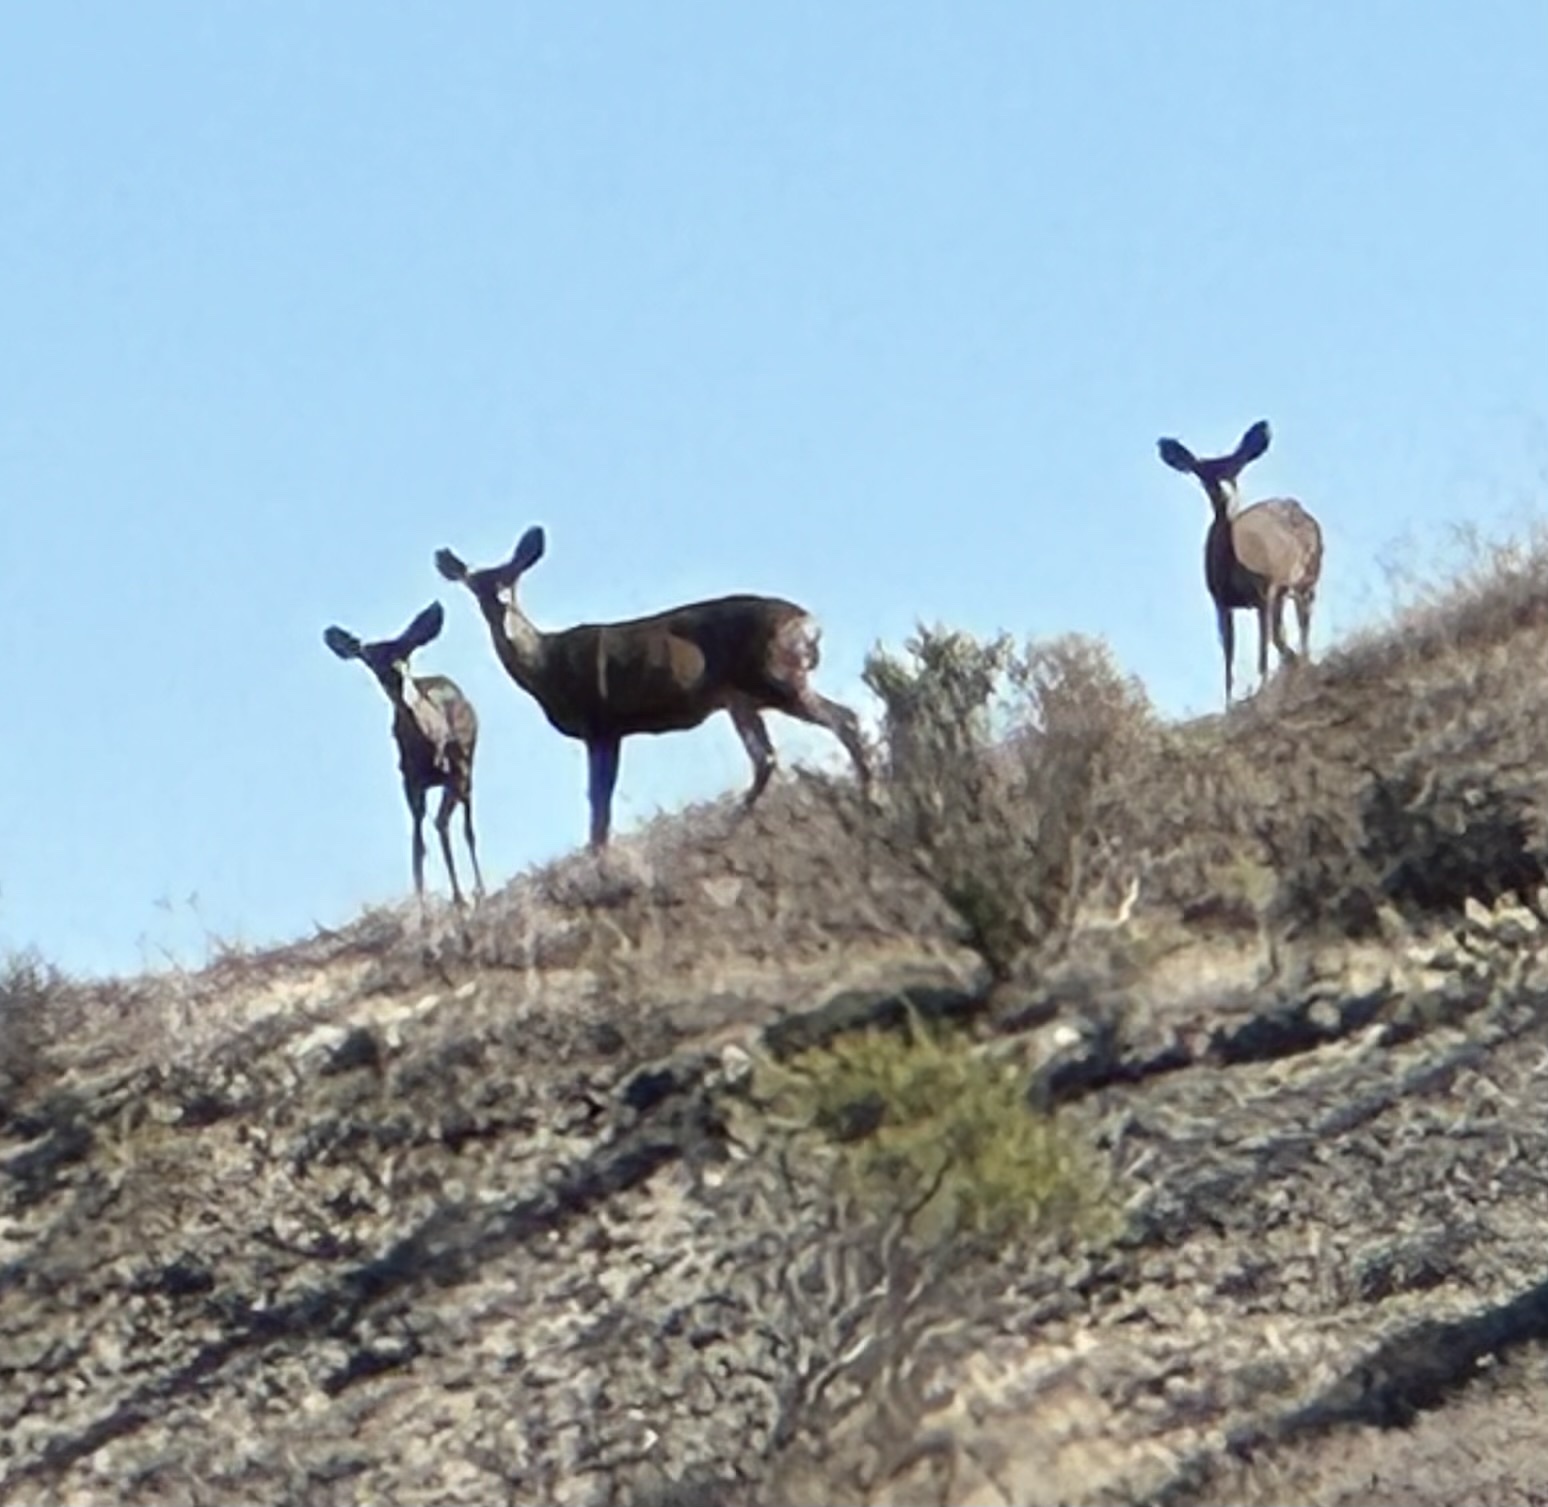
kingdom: Animalia
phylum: Chordata
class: Mammalia
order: Artiodactyla
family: Cervidae
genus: Odocoileus
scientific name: Odocoileus hemionus
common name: Mule deer
